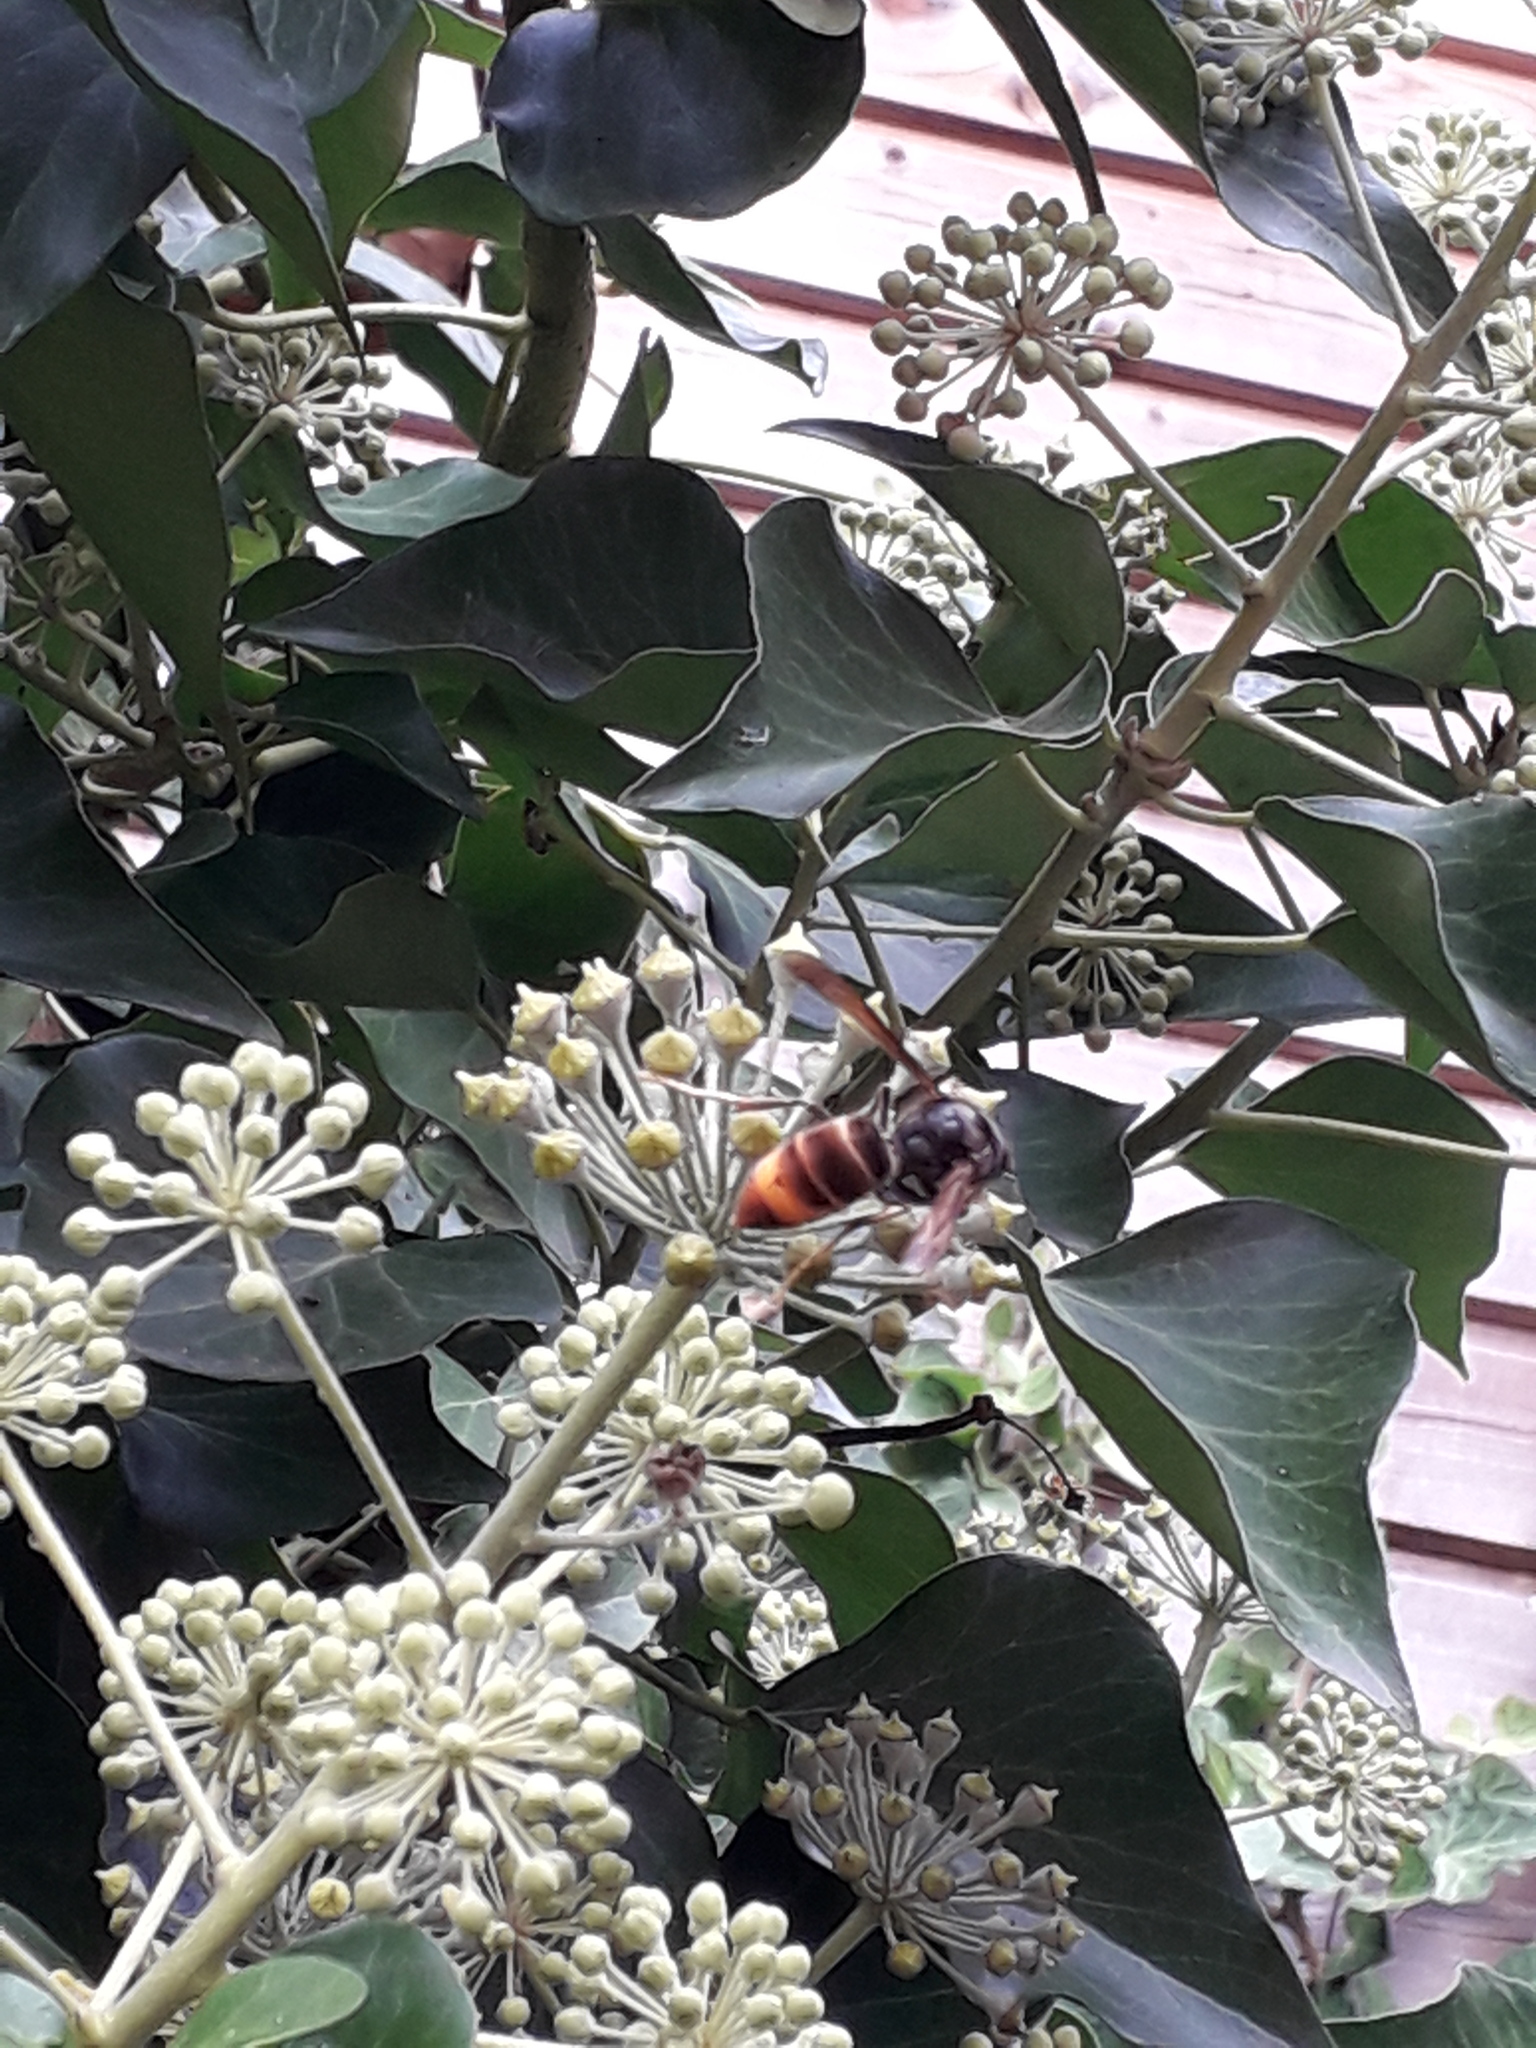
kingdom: Animalia
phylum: Arthropoda
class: Insecta
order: Hymenoptera
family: Vespidae
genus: Vespa
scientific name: Vespa velutina
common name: Asian hornet
